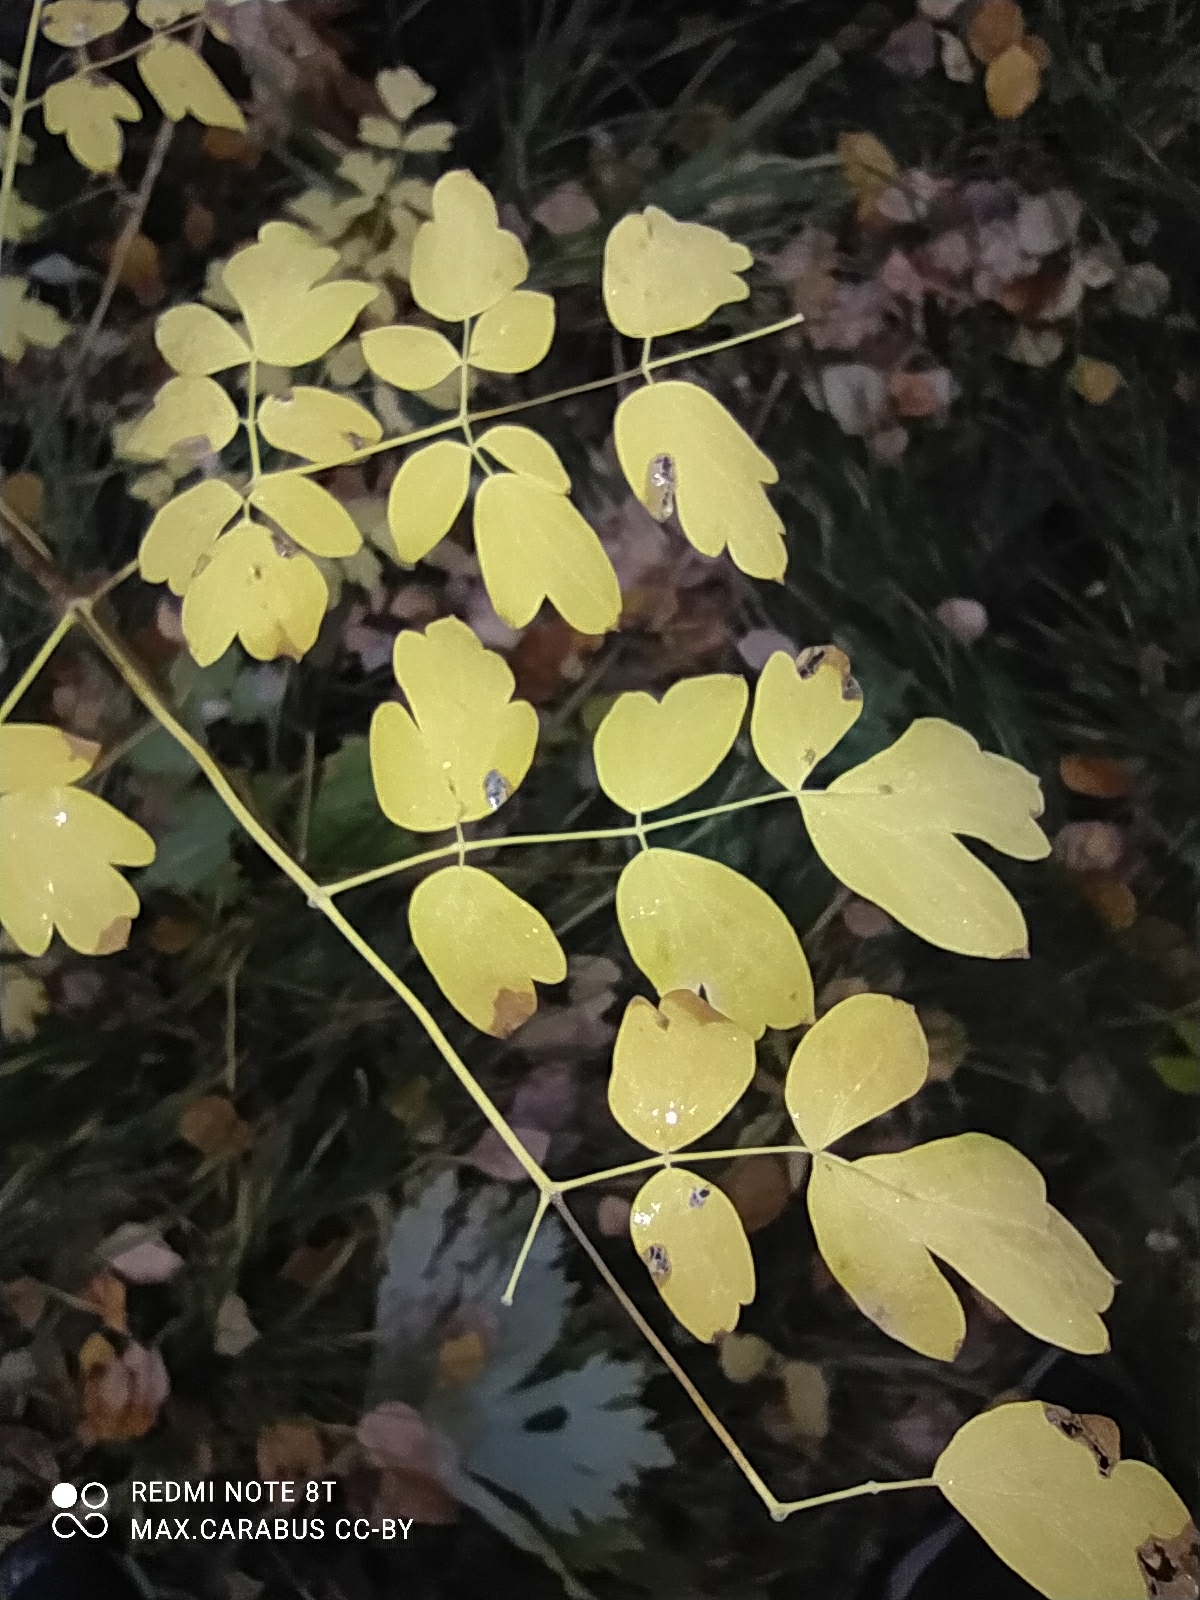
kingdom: Plantae
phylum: Tracheophyta
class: Magnoliopsida
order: Ranunculales
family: Ranunculaceae
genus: Thalictrum
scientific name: Thalictrum minus
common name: Lesser meadow-rue
